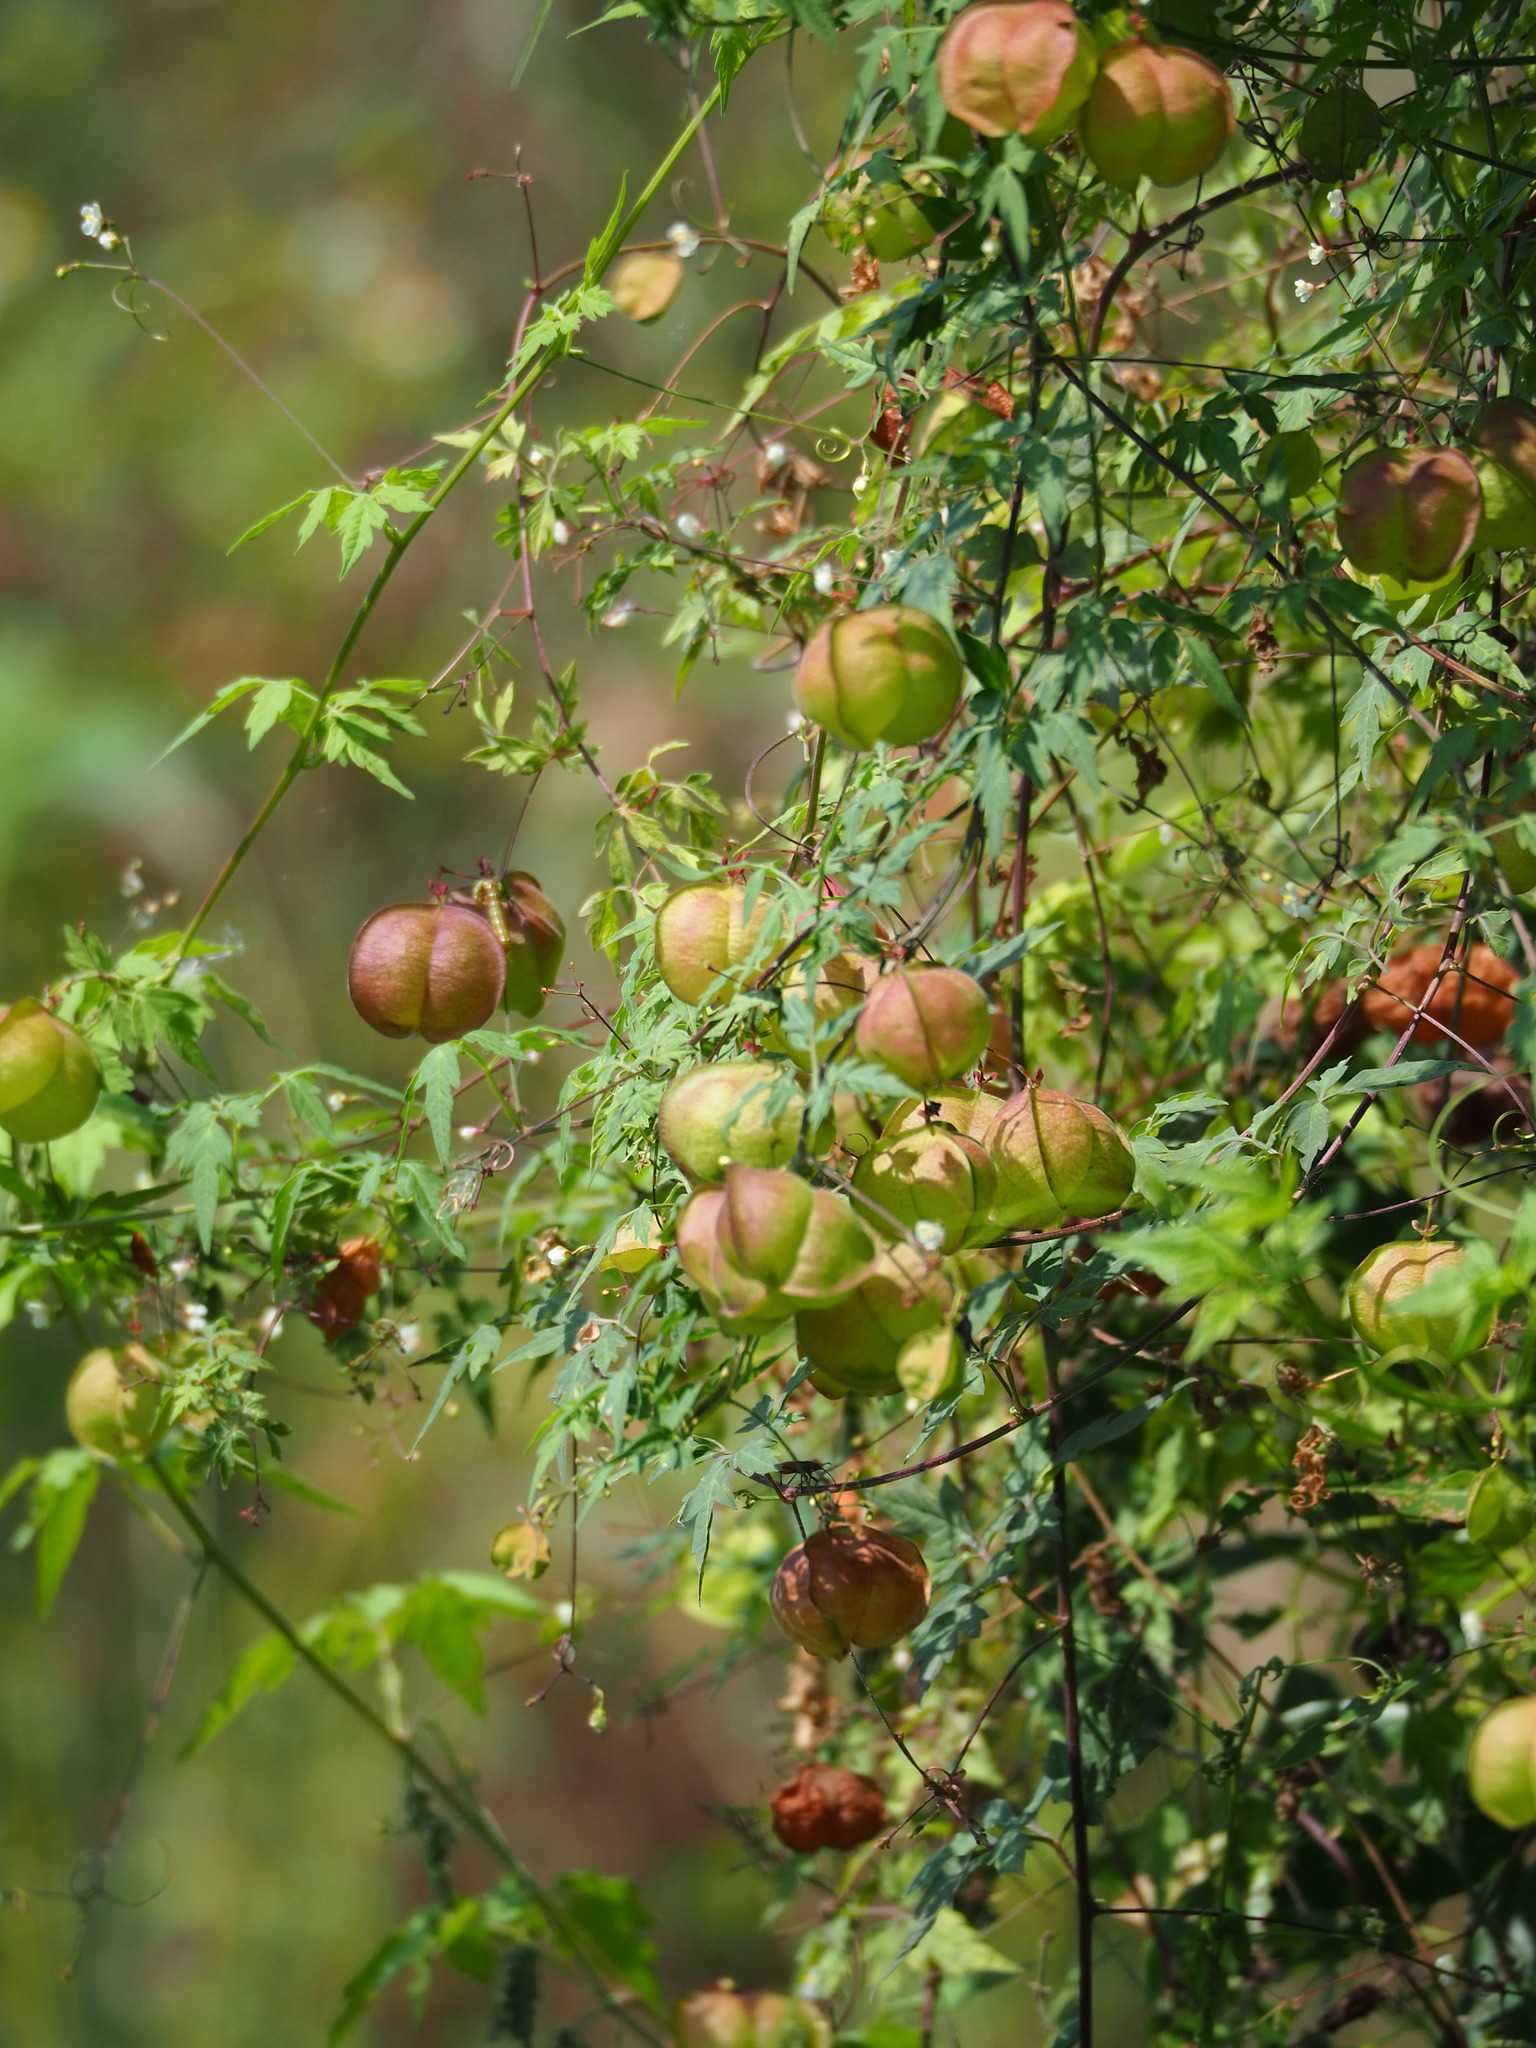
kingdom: Plantae
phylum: Tracheophyta
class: Magnoliopsida
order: Sapindales
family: Sapindaceae
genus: Cardiospermum
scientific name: Cardiospermum halicacabum
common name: Balloon vine
